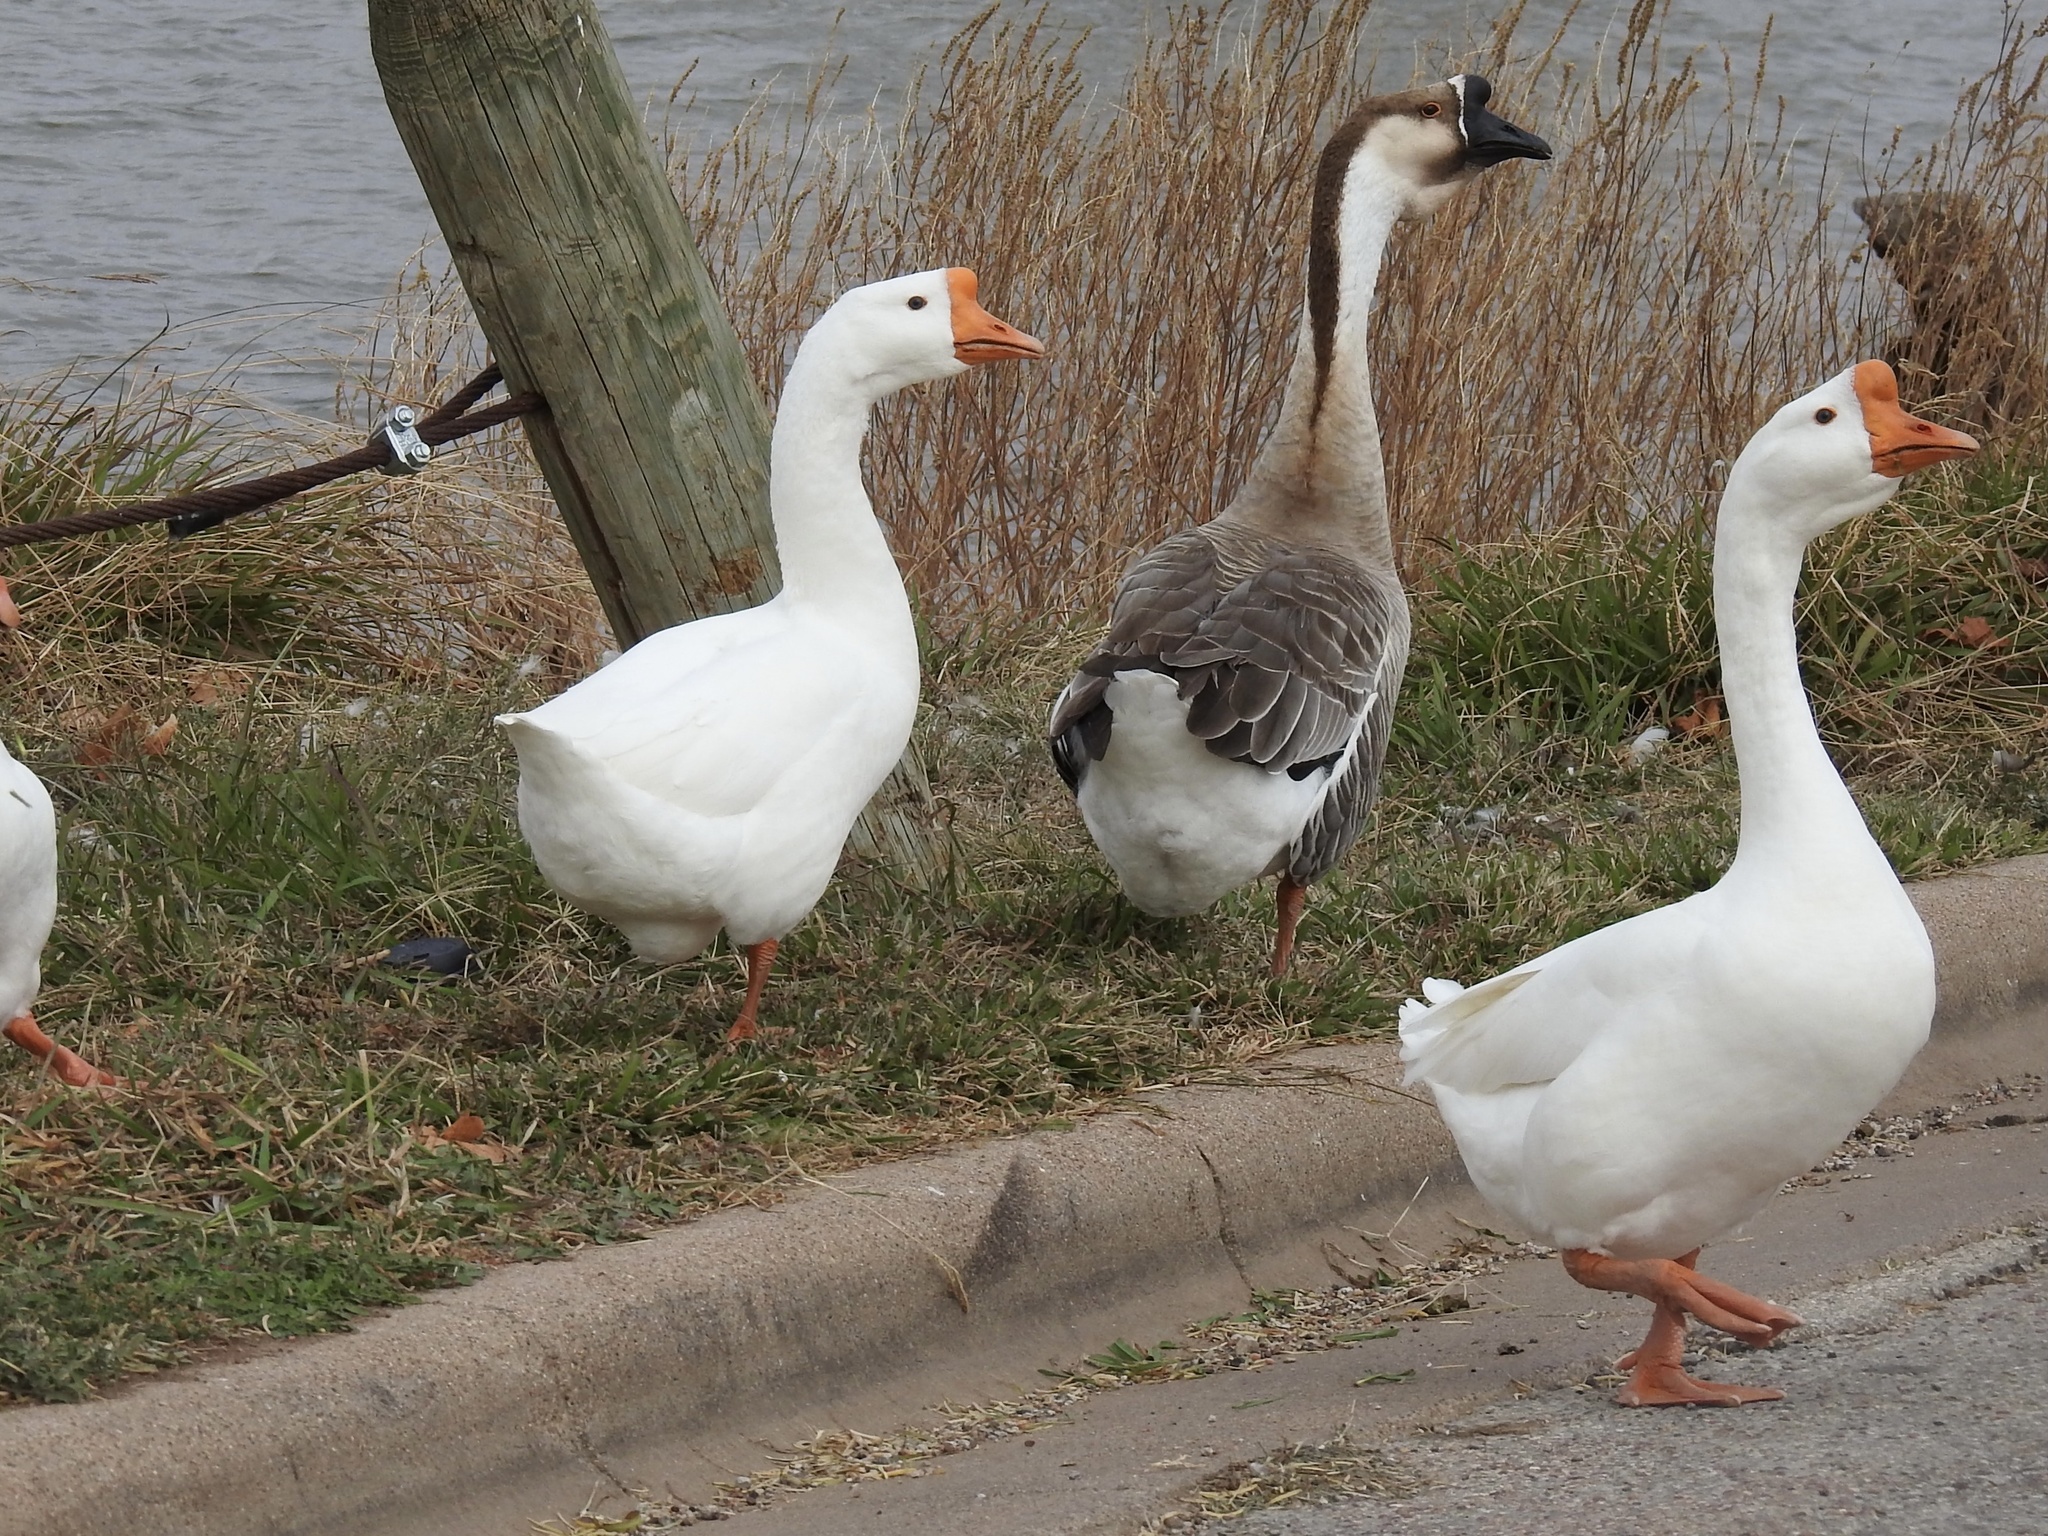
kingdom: Animalia
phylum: Chordata
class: Aves
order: Anseriformes
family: Anatidae
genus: Anser
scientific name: Anser cygnoides
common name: Swan goose
